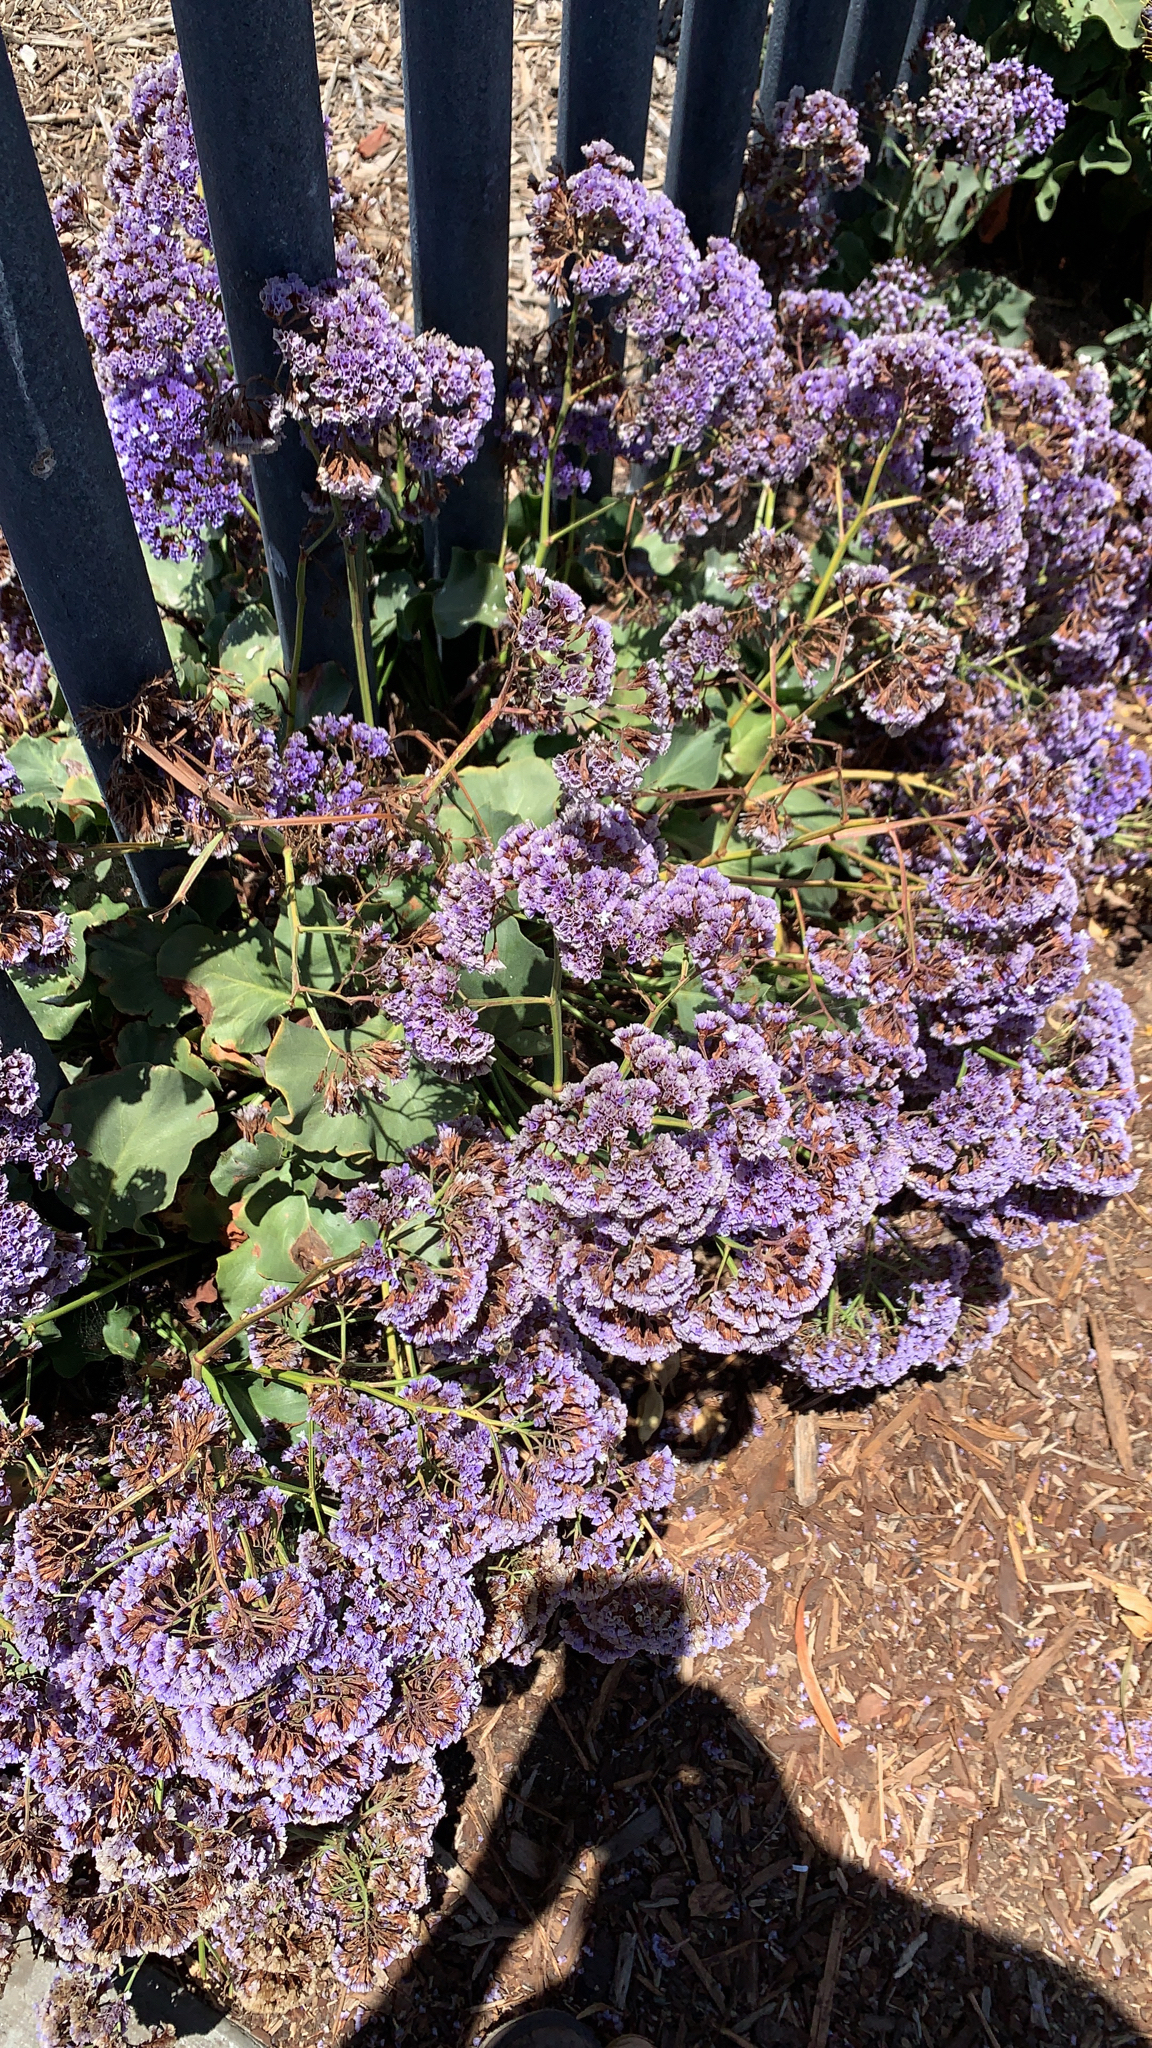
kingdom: Plantae
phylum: Tracheophyta
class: Magnoliopsida
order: Caryophyllales
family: Plumbaginaceae
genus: Limonium
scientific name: Limonium perezii
